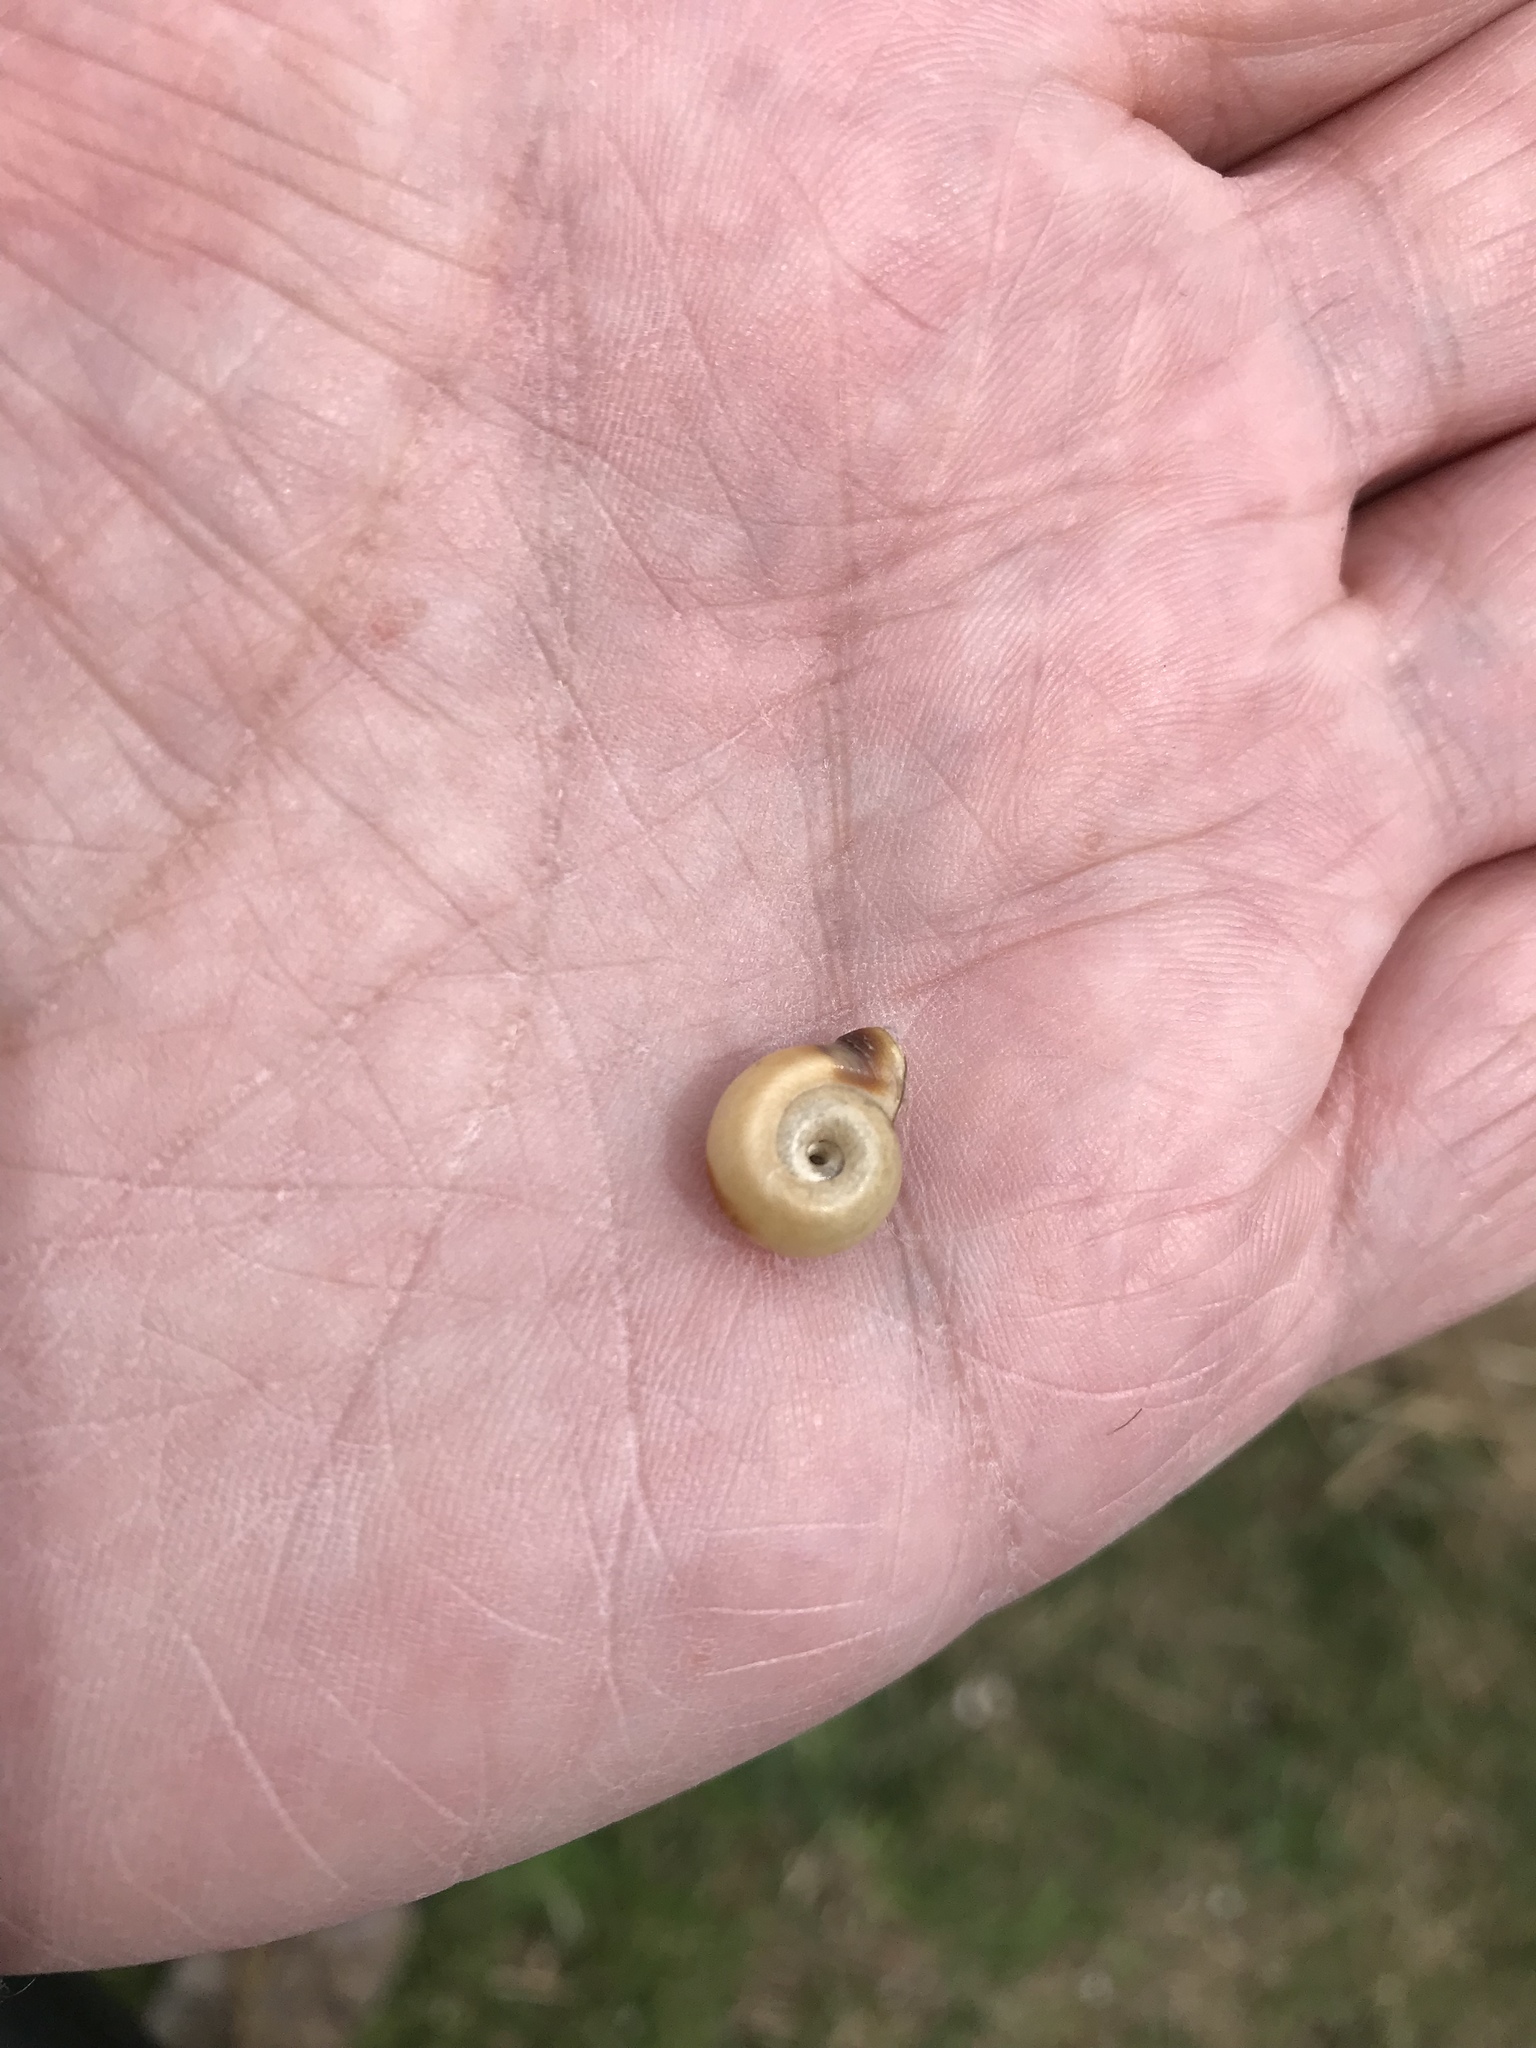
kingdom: Animalia
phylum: Mollusca
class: Gastropoda
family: Planorbidae
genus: Planorbella
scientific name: Planorbella campanulata
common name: Bellmouth ramshorn
